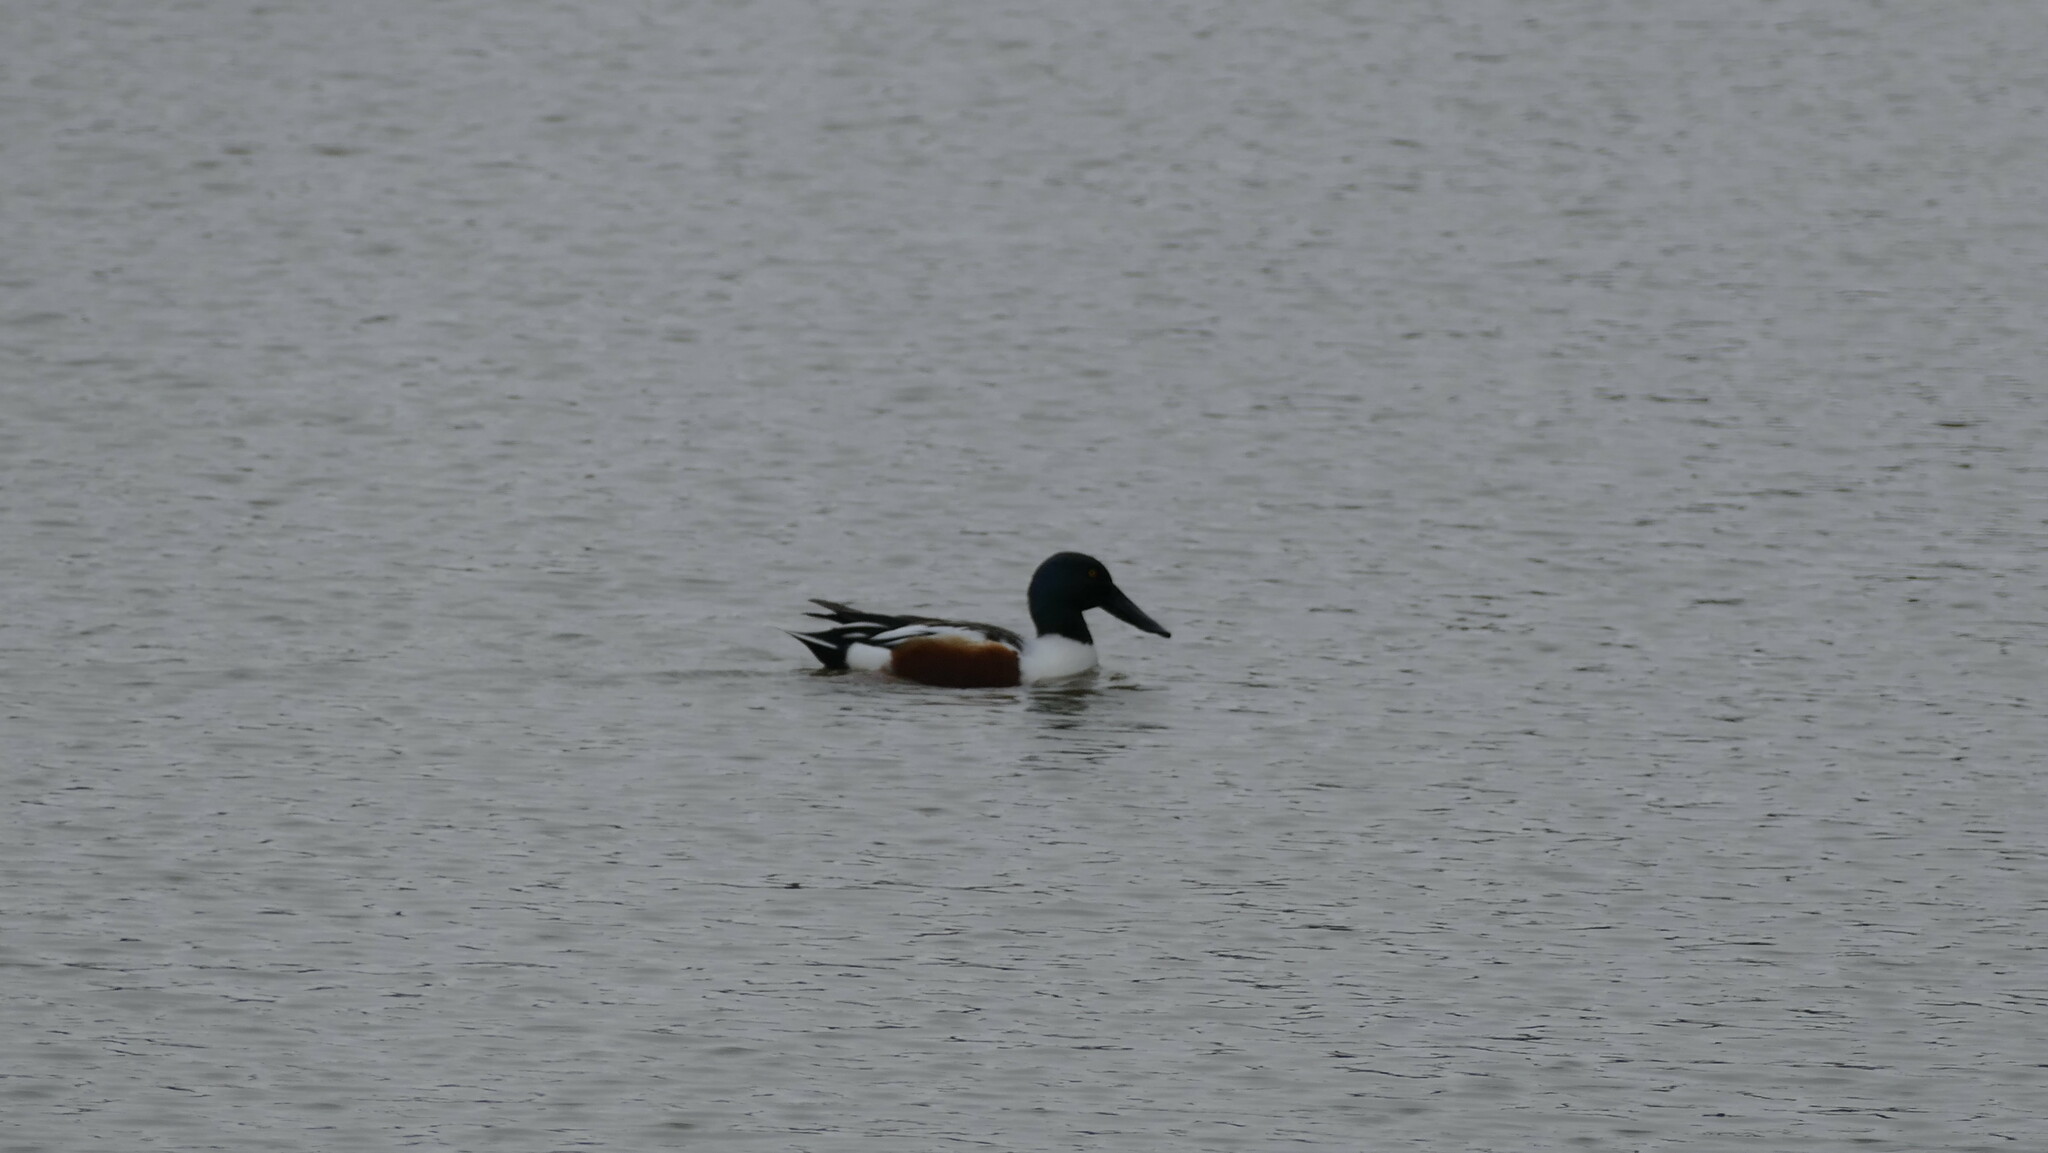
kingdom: Animalia
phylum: Chordata
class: Aves
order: Anseriformes
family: Anatidae
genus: Spatula
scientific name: Spatula clypeata
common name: Northern shoveler
